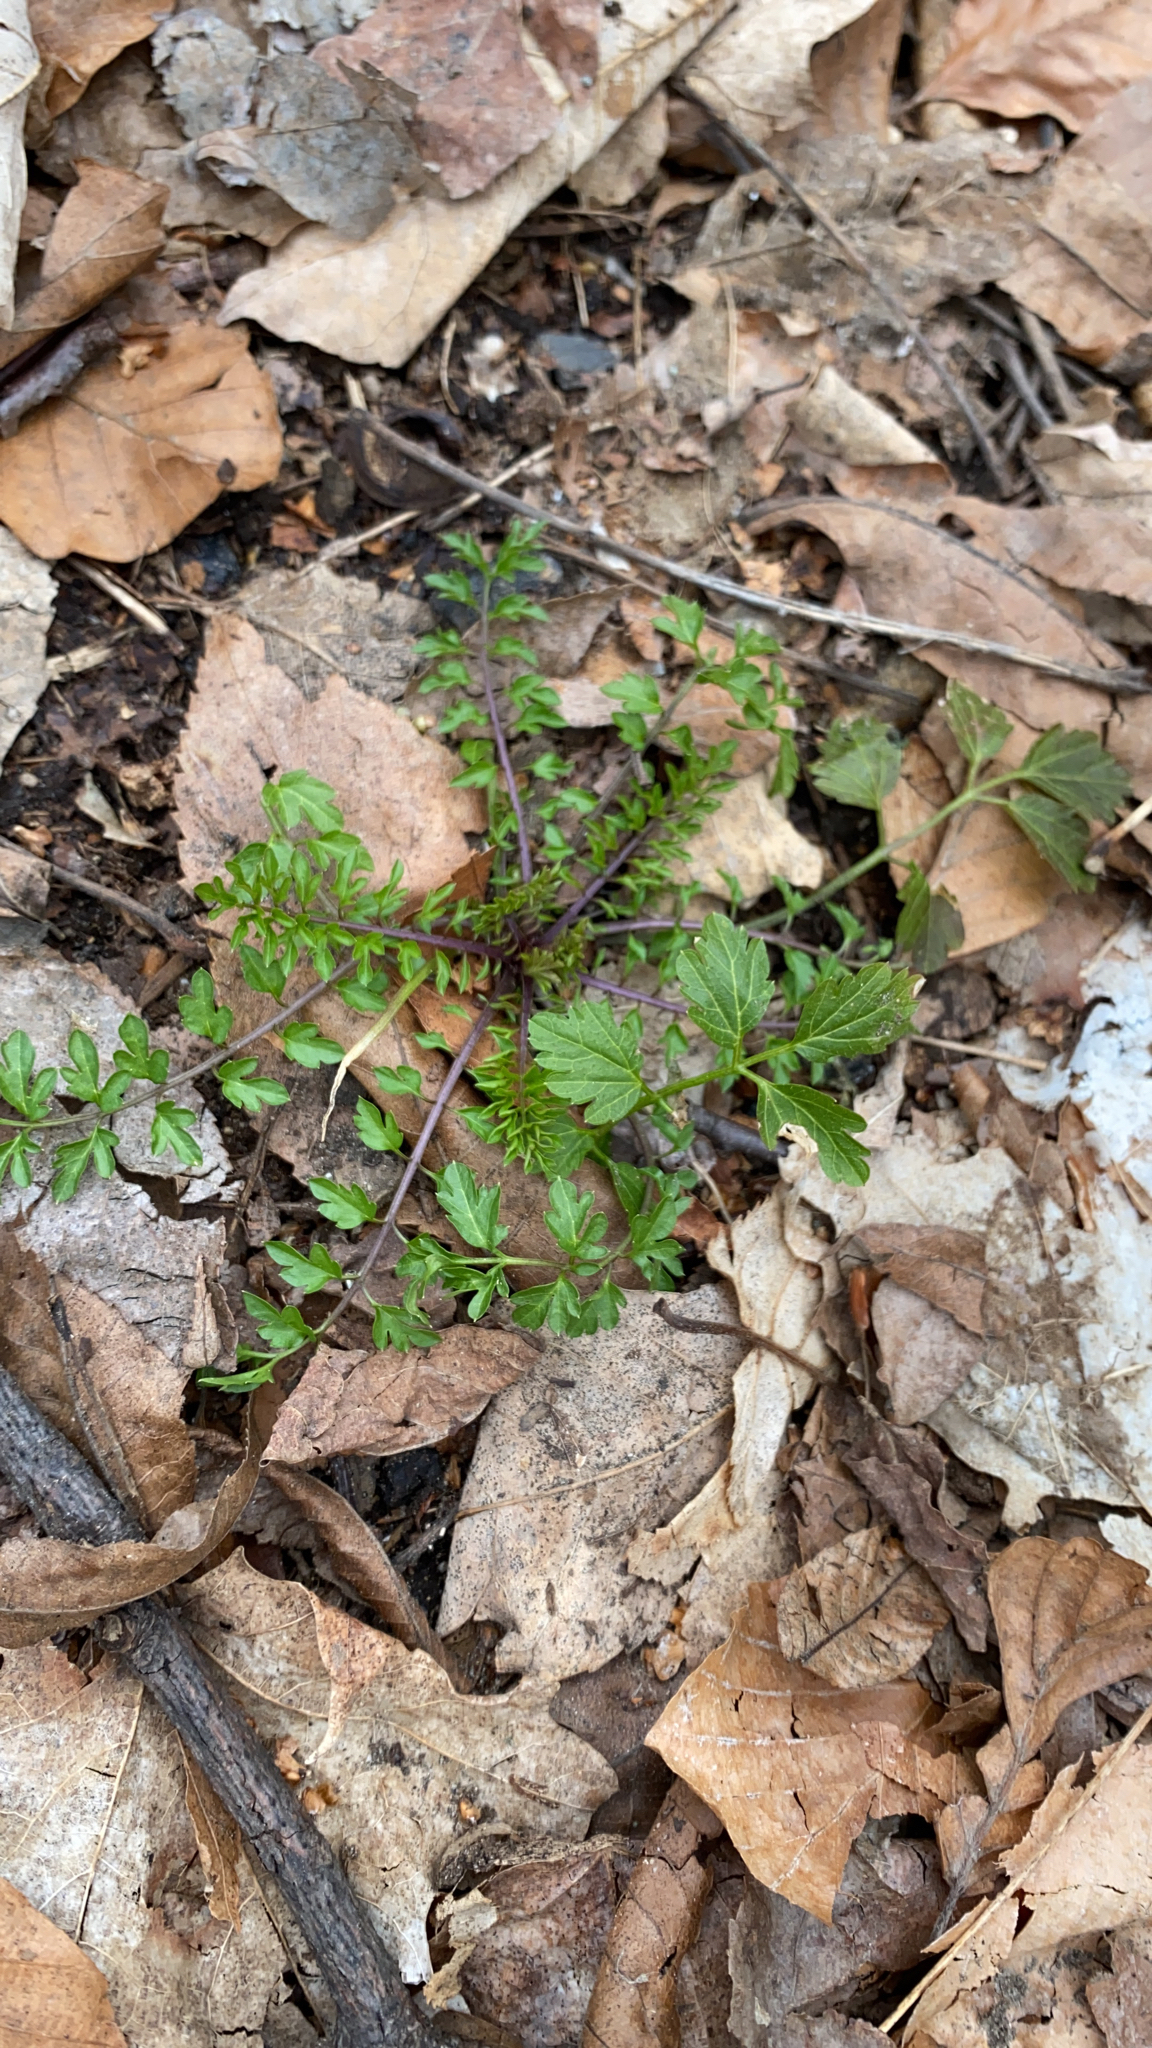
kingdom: Plantae
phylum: Tracheophyta
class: Magnoliopsida
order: Brassicales
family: Brassicaceae
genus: Cardamine
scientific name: Cardamine impatiens
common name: Narrow-leaved bitter-cress
